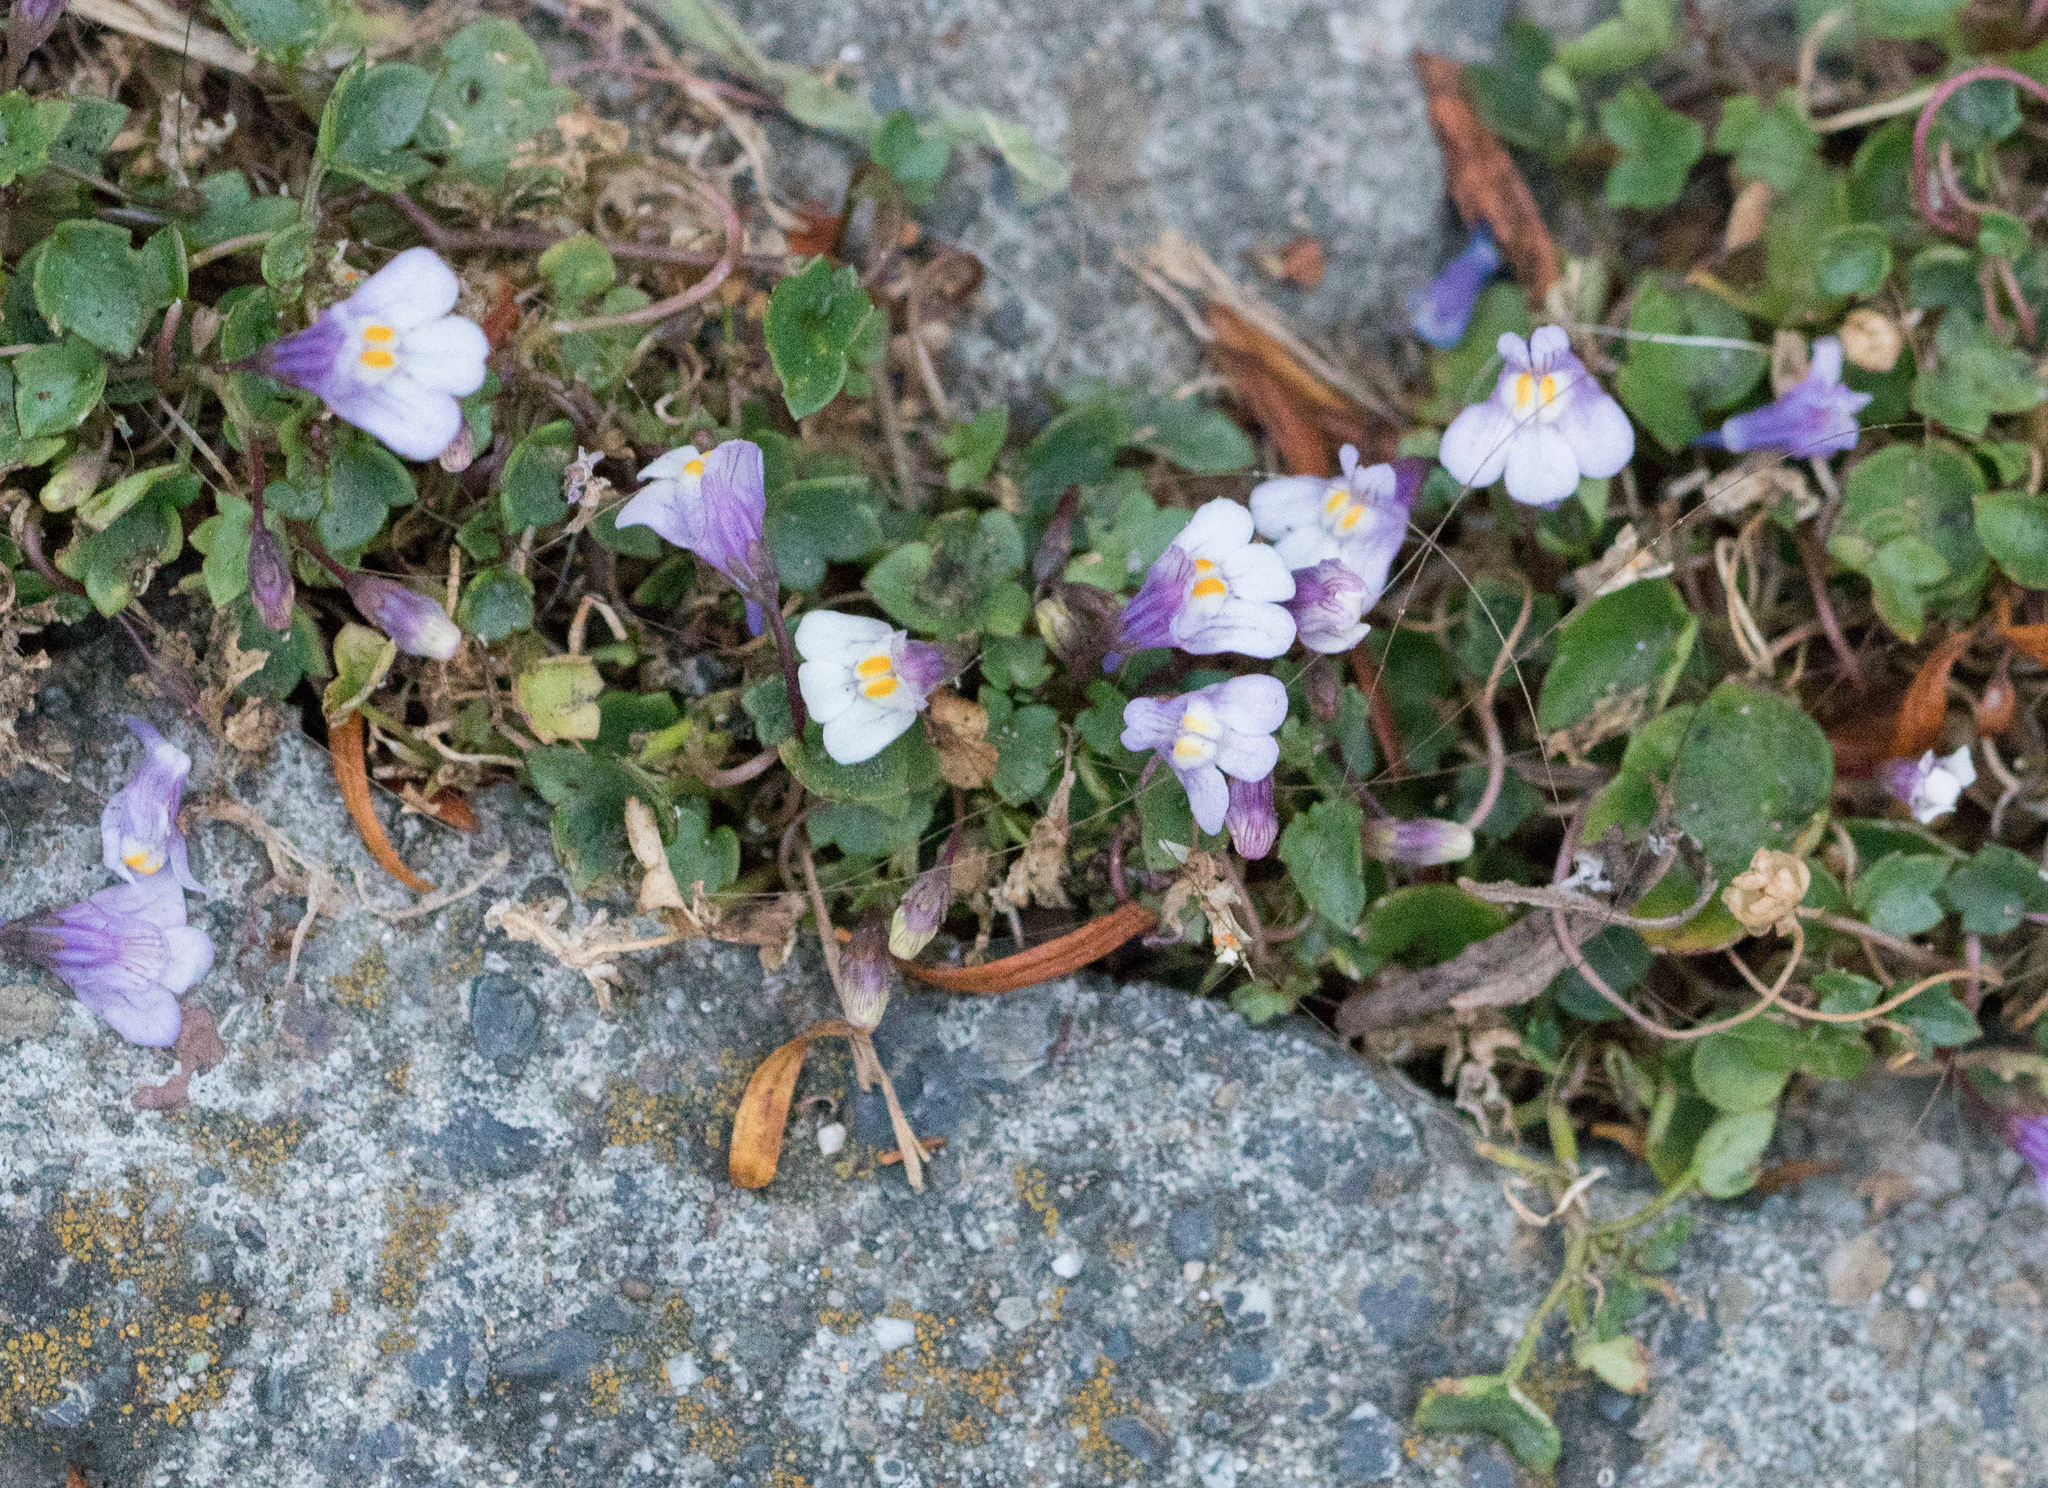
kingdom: Plantae
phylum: Tracheophyta
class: Magnoliopsida
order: Lamiales
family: Plantaginaceae
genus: Cymbalaria
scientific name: Cymbalaria muralis
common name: Ivy-leaved toadflax
